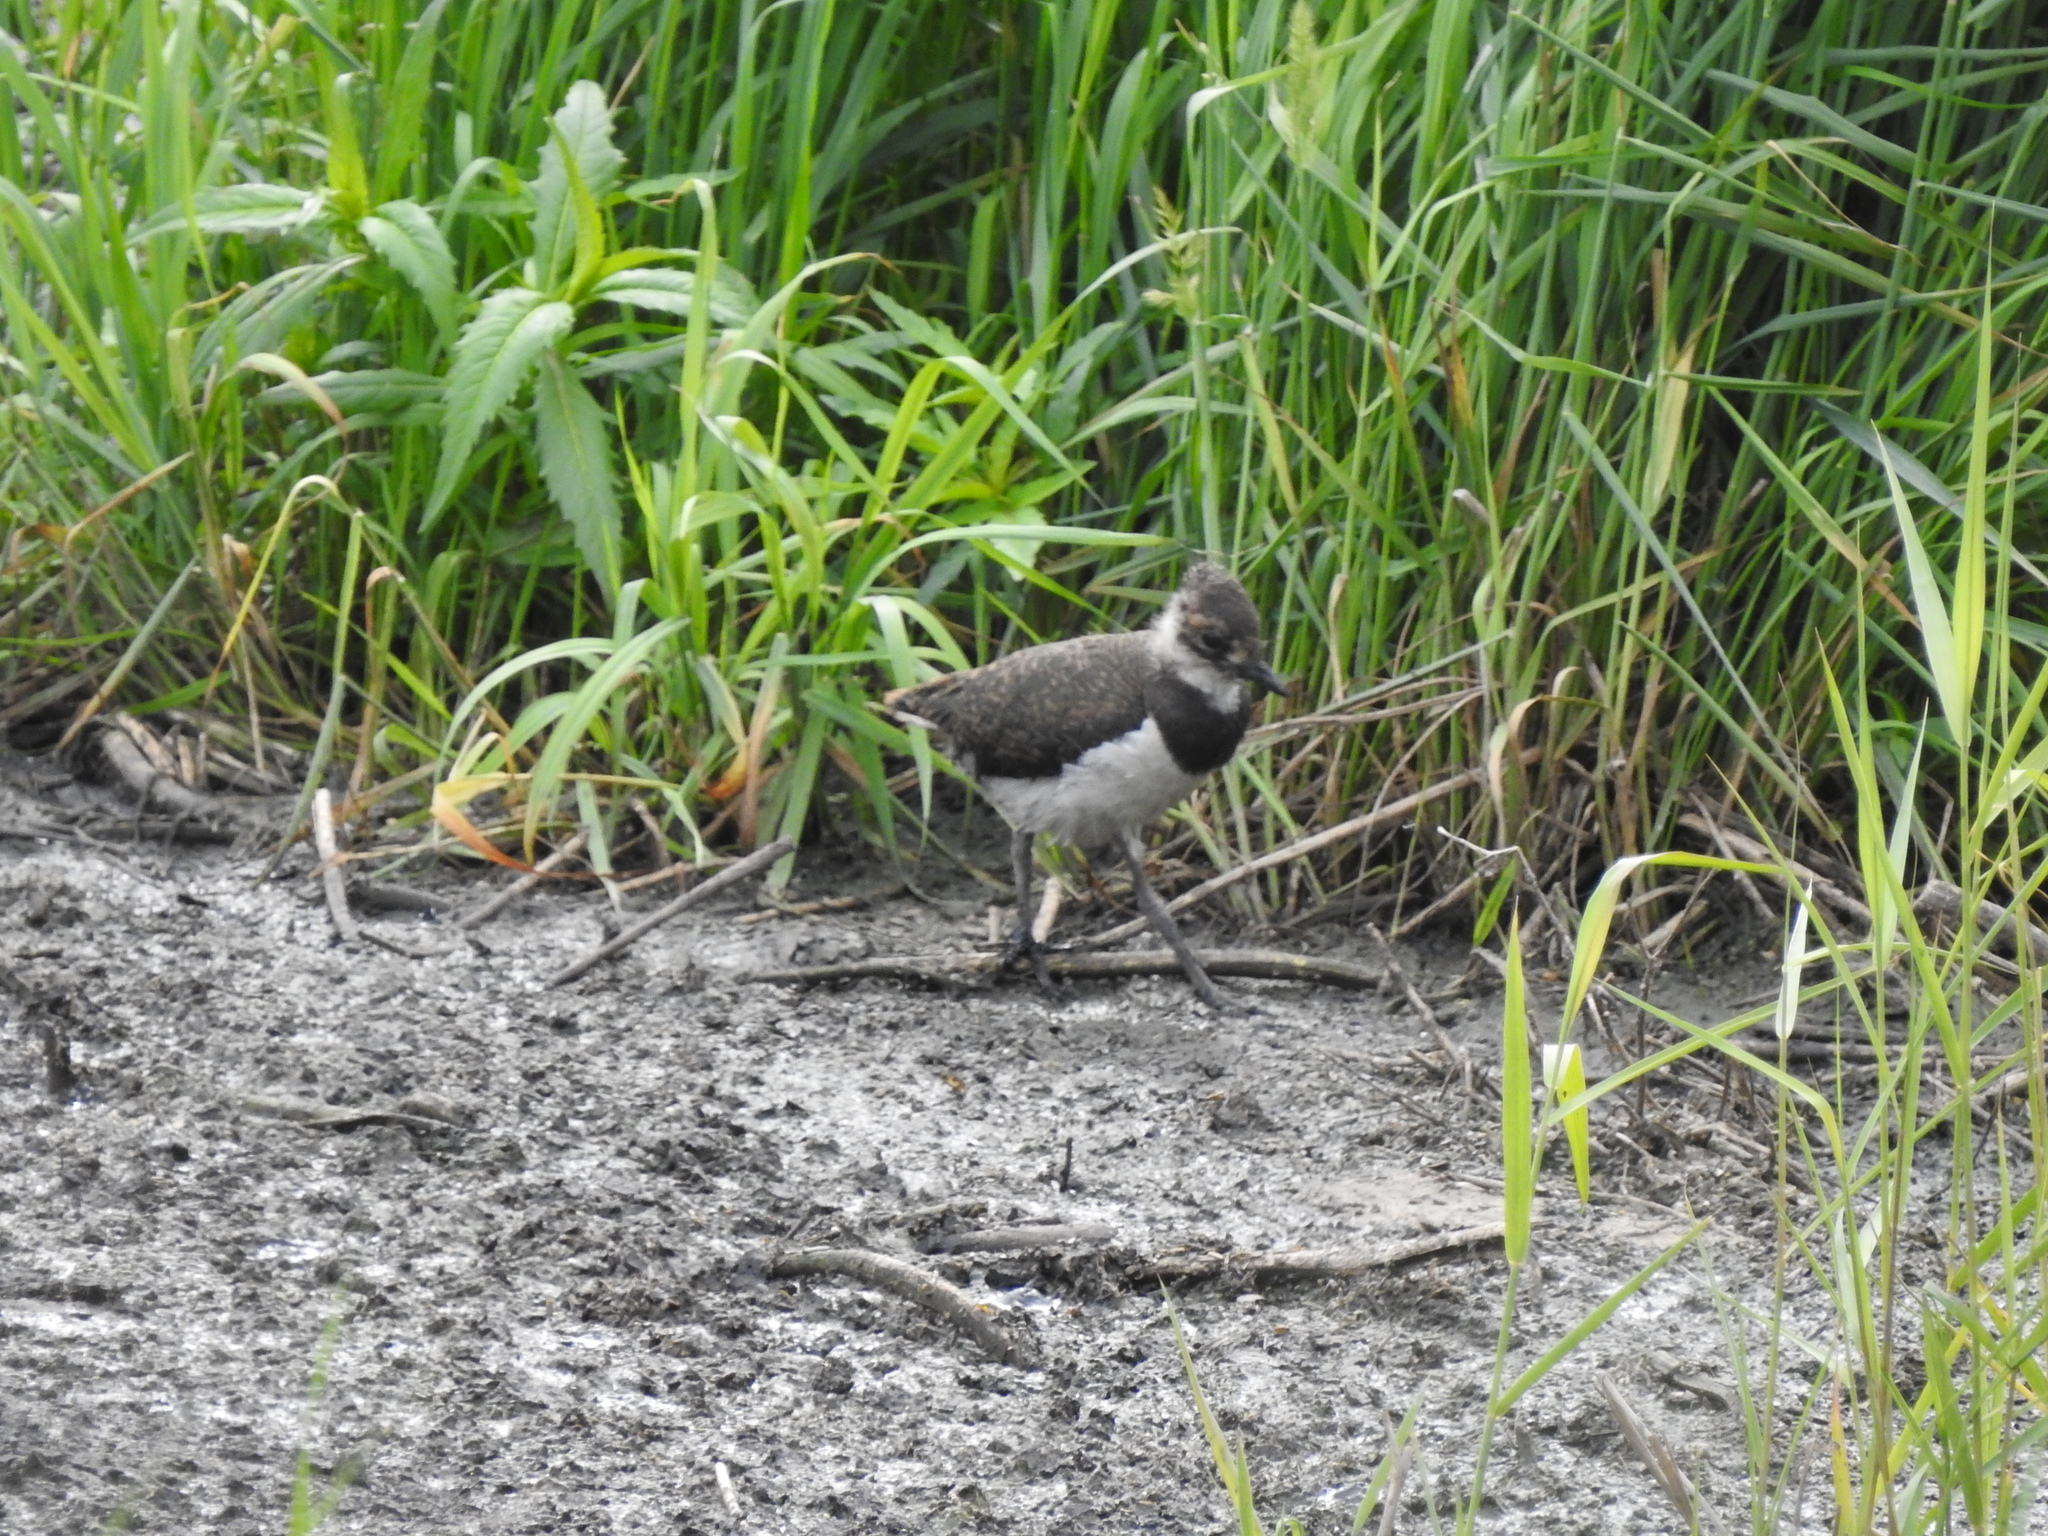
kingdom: Animalia
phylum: Chordata
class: Aves
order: Charadriiformes
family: Charadriidae
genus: Vanellus
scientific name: Vanellus vanellus
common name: Northern lapwing
